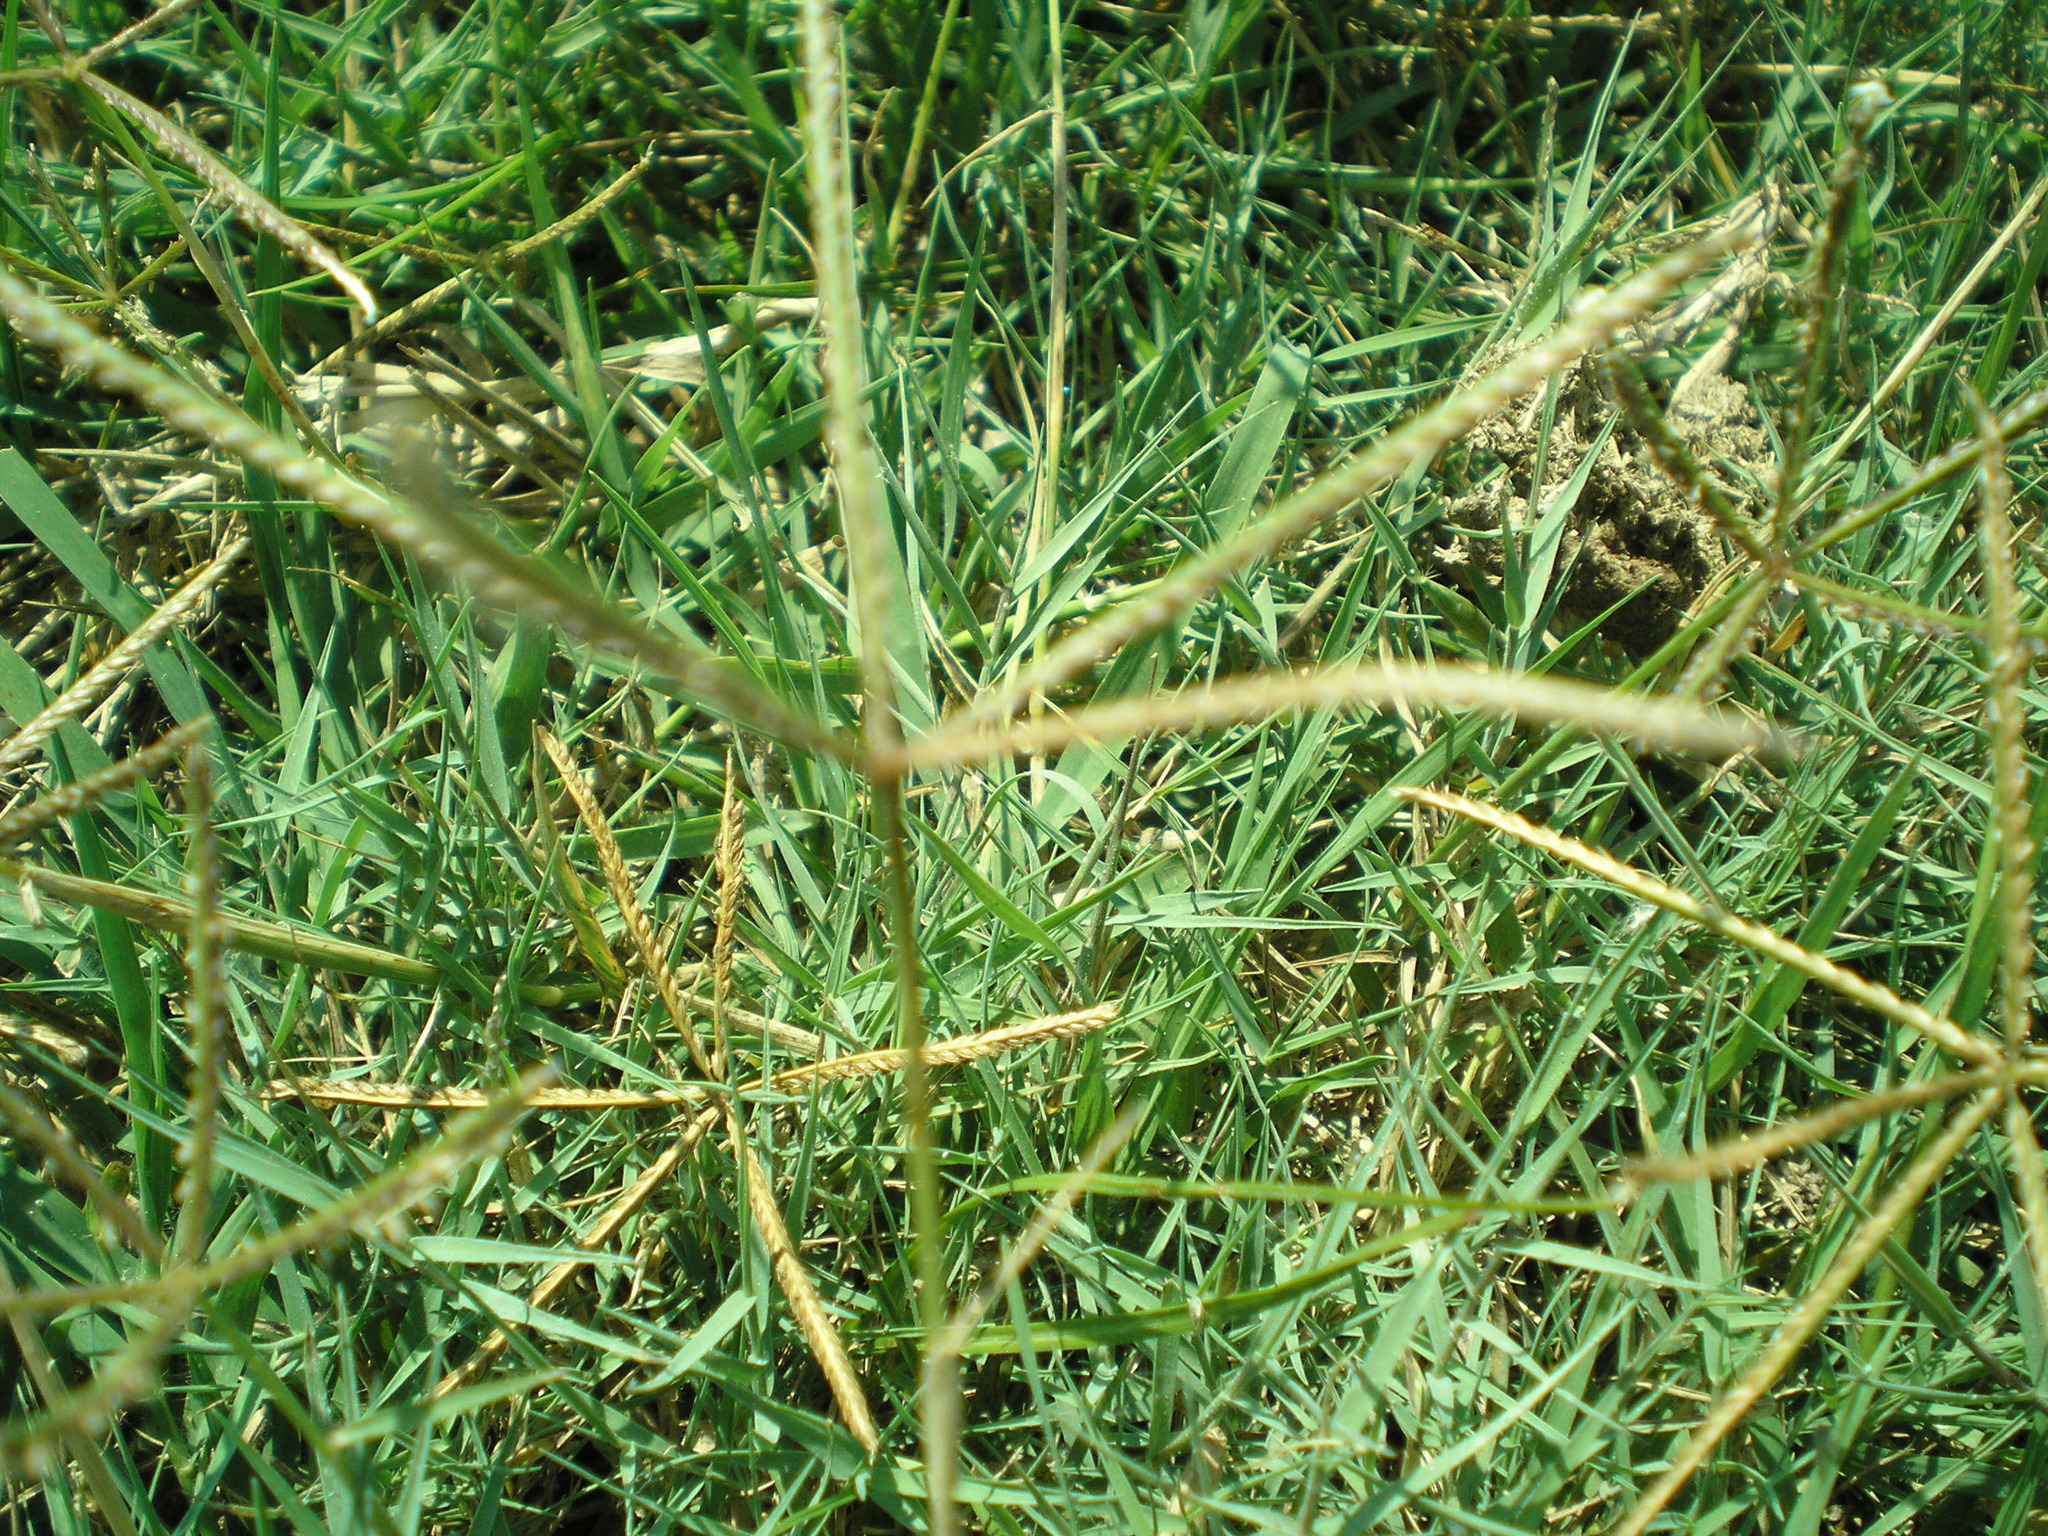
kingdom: Plantae
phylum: Tracheophyta
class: Liliopsida
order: Poales
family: Poaceae
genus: Cynodon
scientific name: Cynodon dactylon
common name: Bermuda grass
